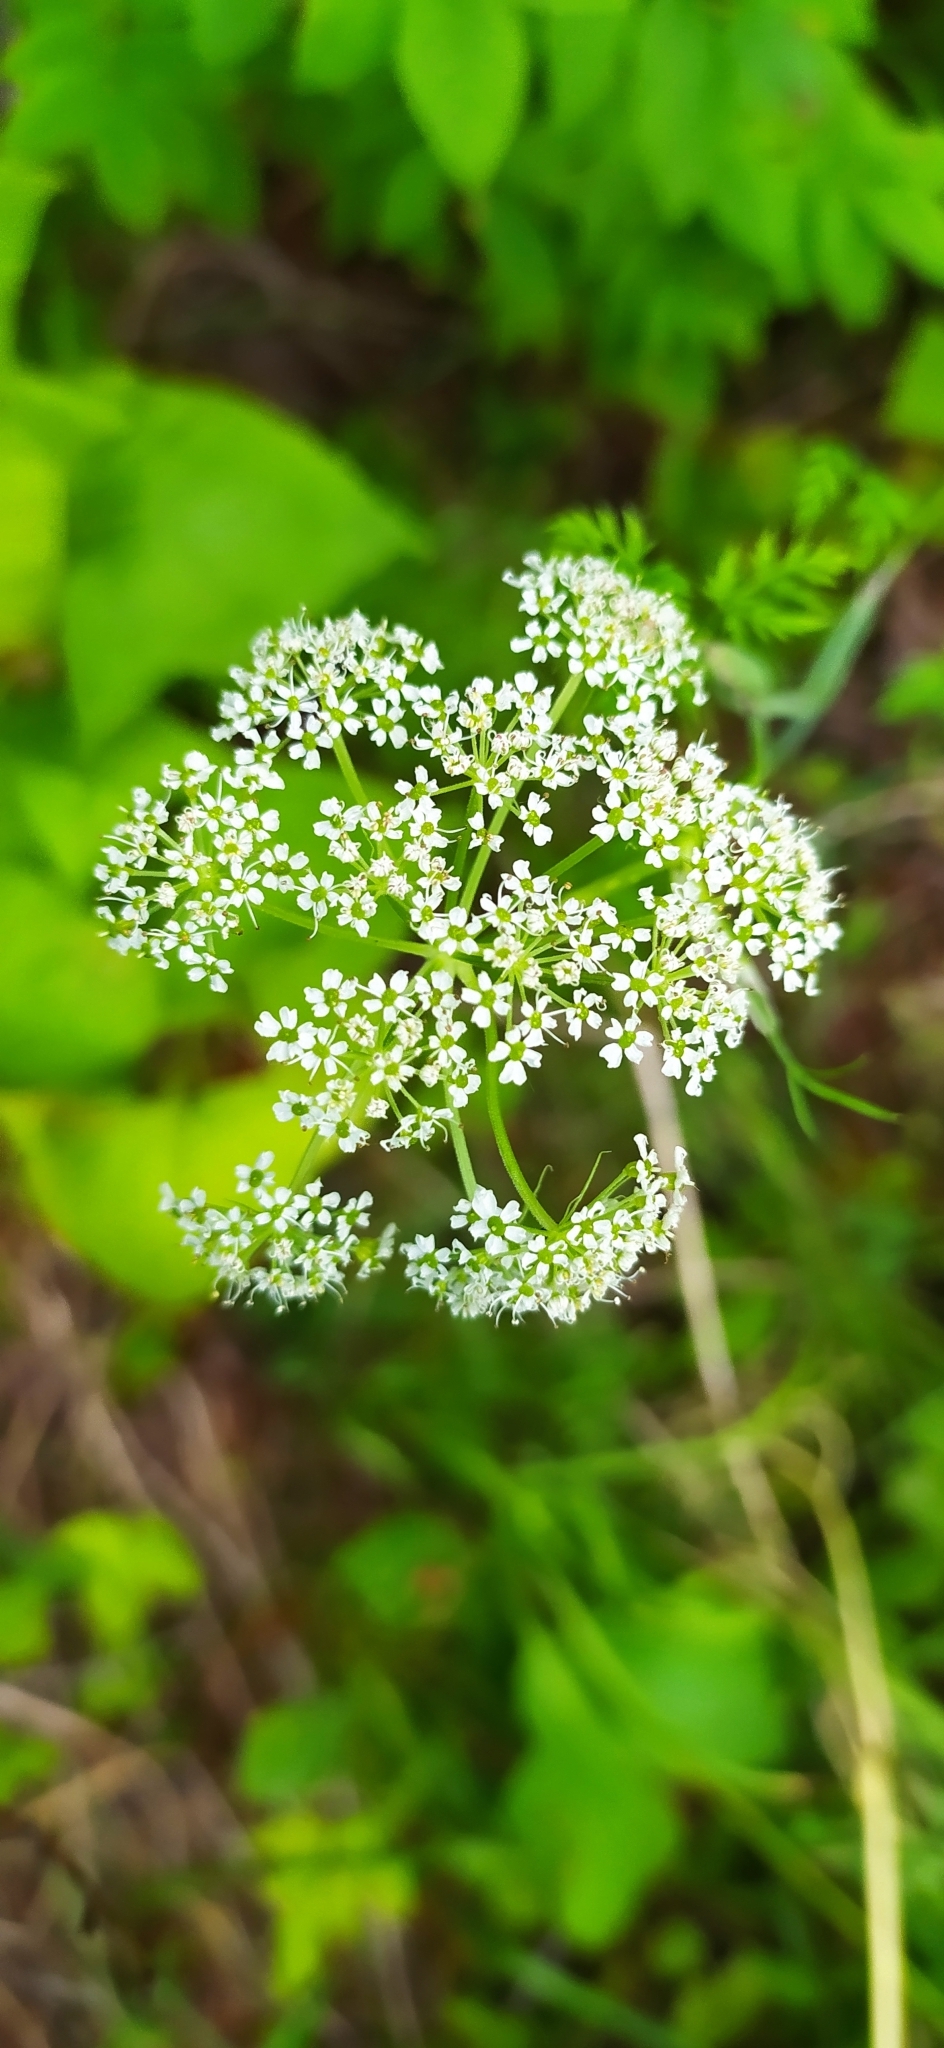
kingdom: Plantae
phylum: Tracheophyta
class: Magnoliopsida
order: Apiales
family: Apiaceae
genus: Conioselinum
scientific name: Conioselinum tataricum
